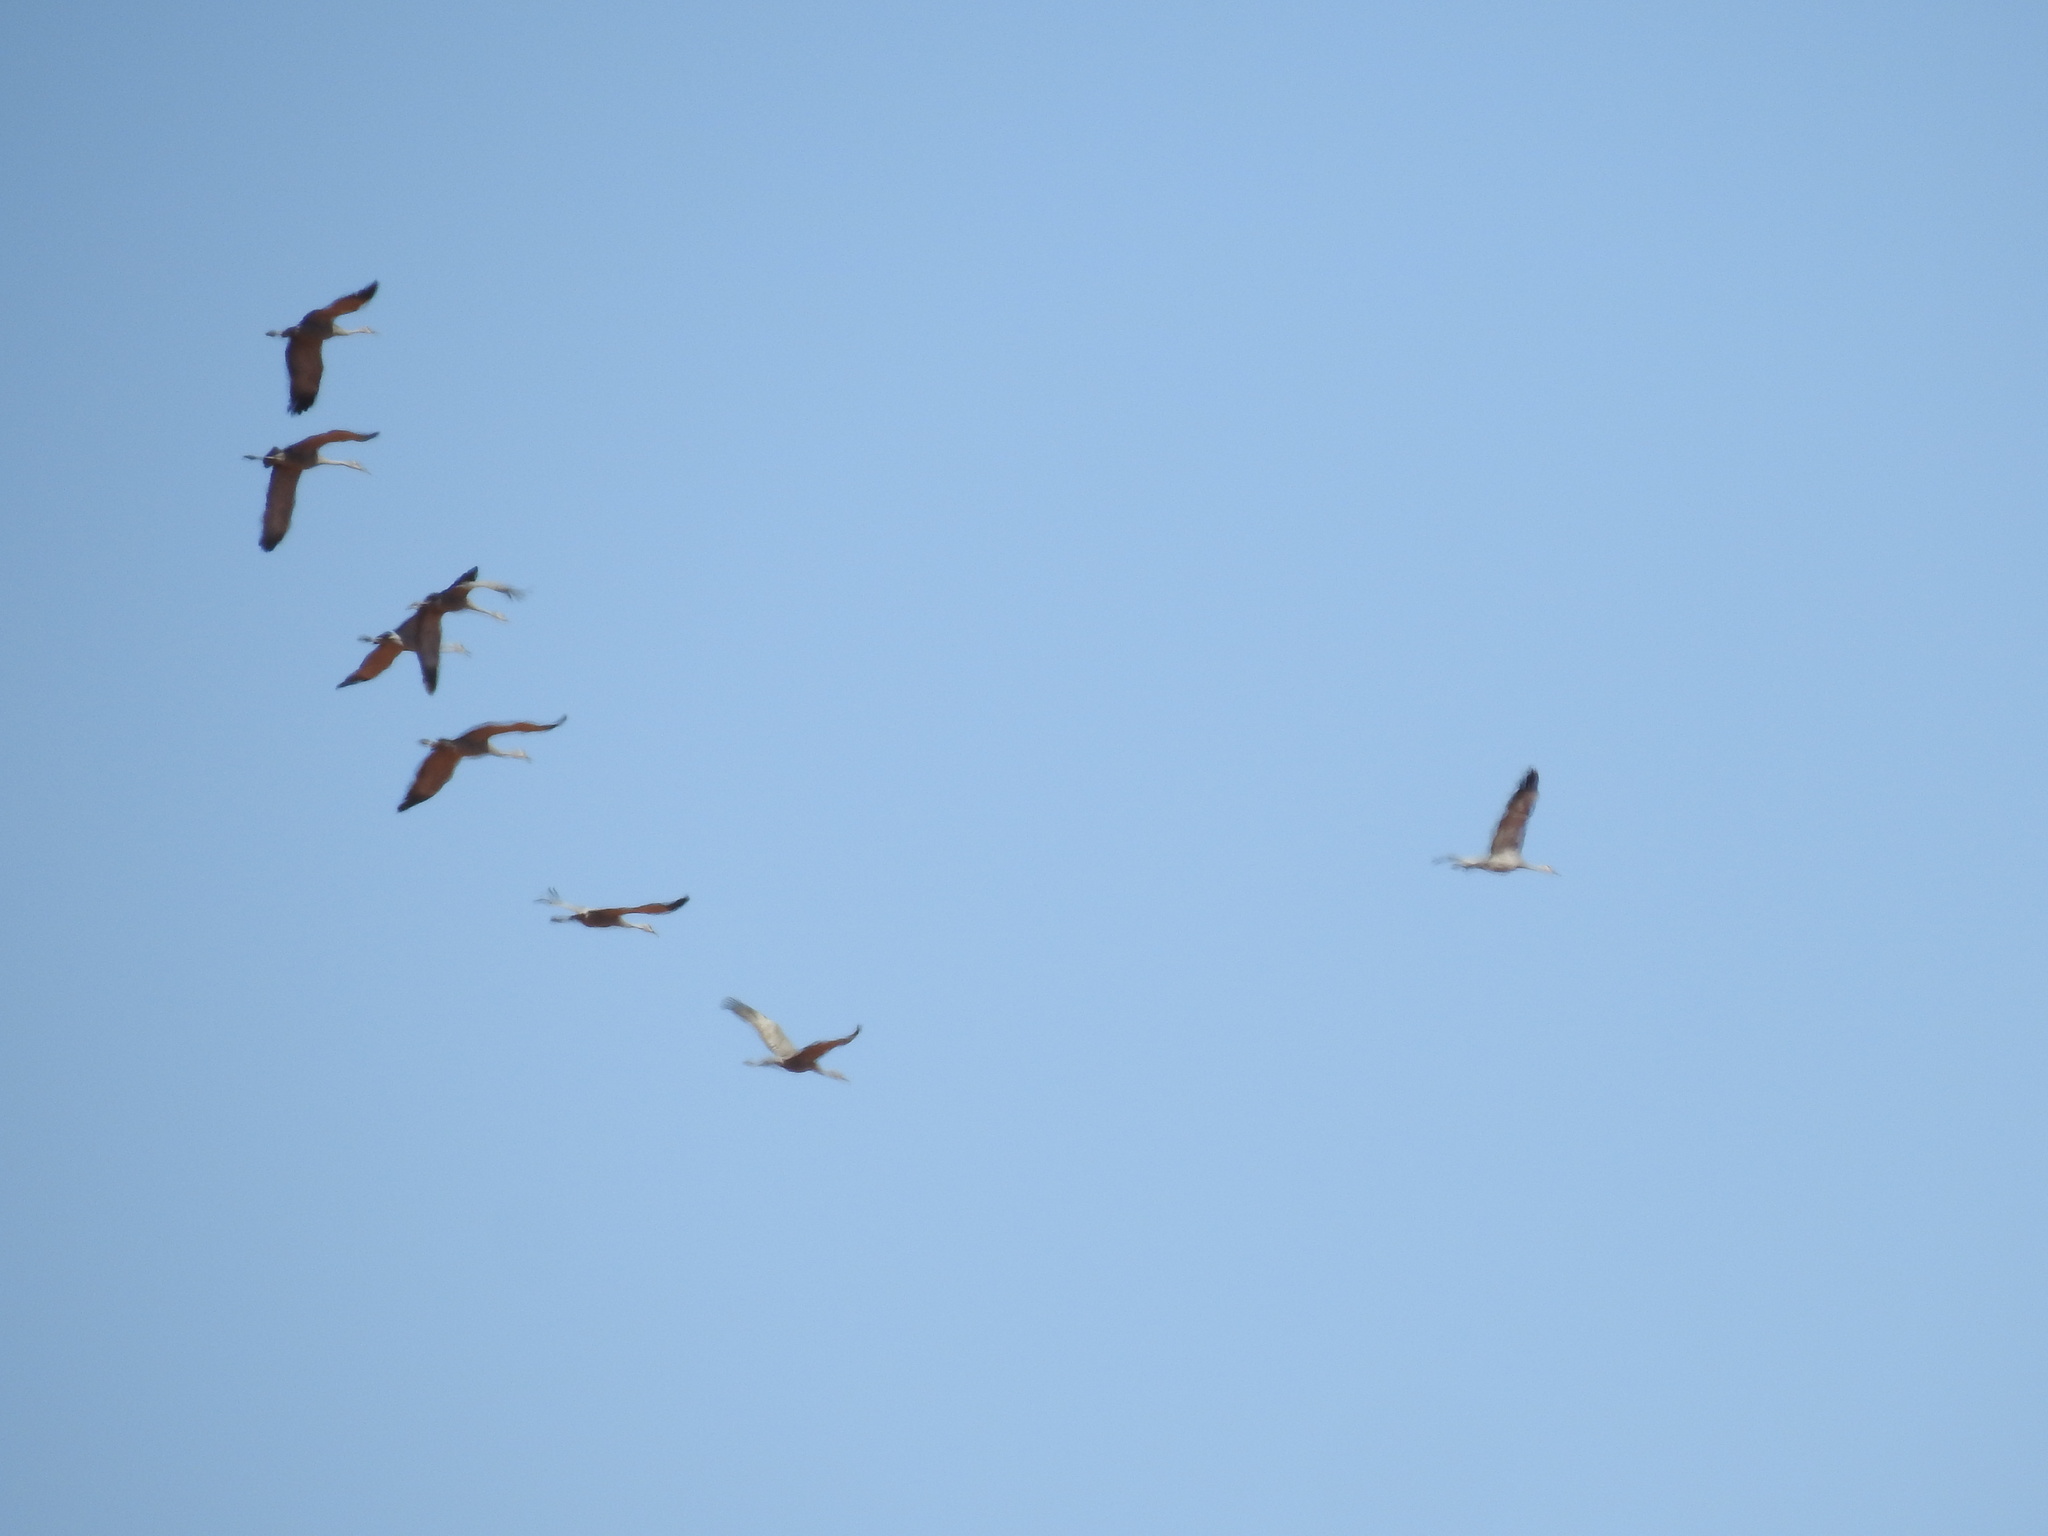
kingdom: Animalia
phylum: Chordata
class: Aves
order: Gruiformes
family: Gruidae
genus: Grus
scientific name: Grus canadensis
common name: Sandhill crane
